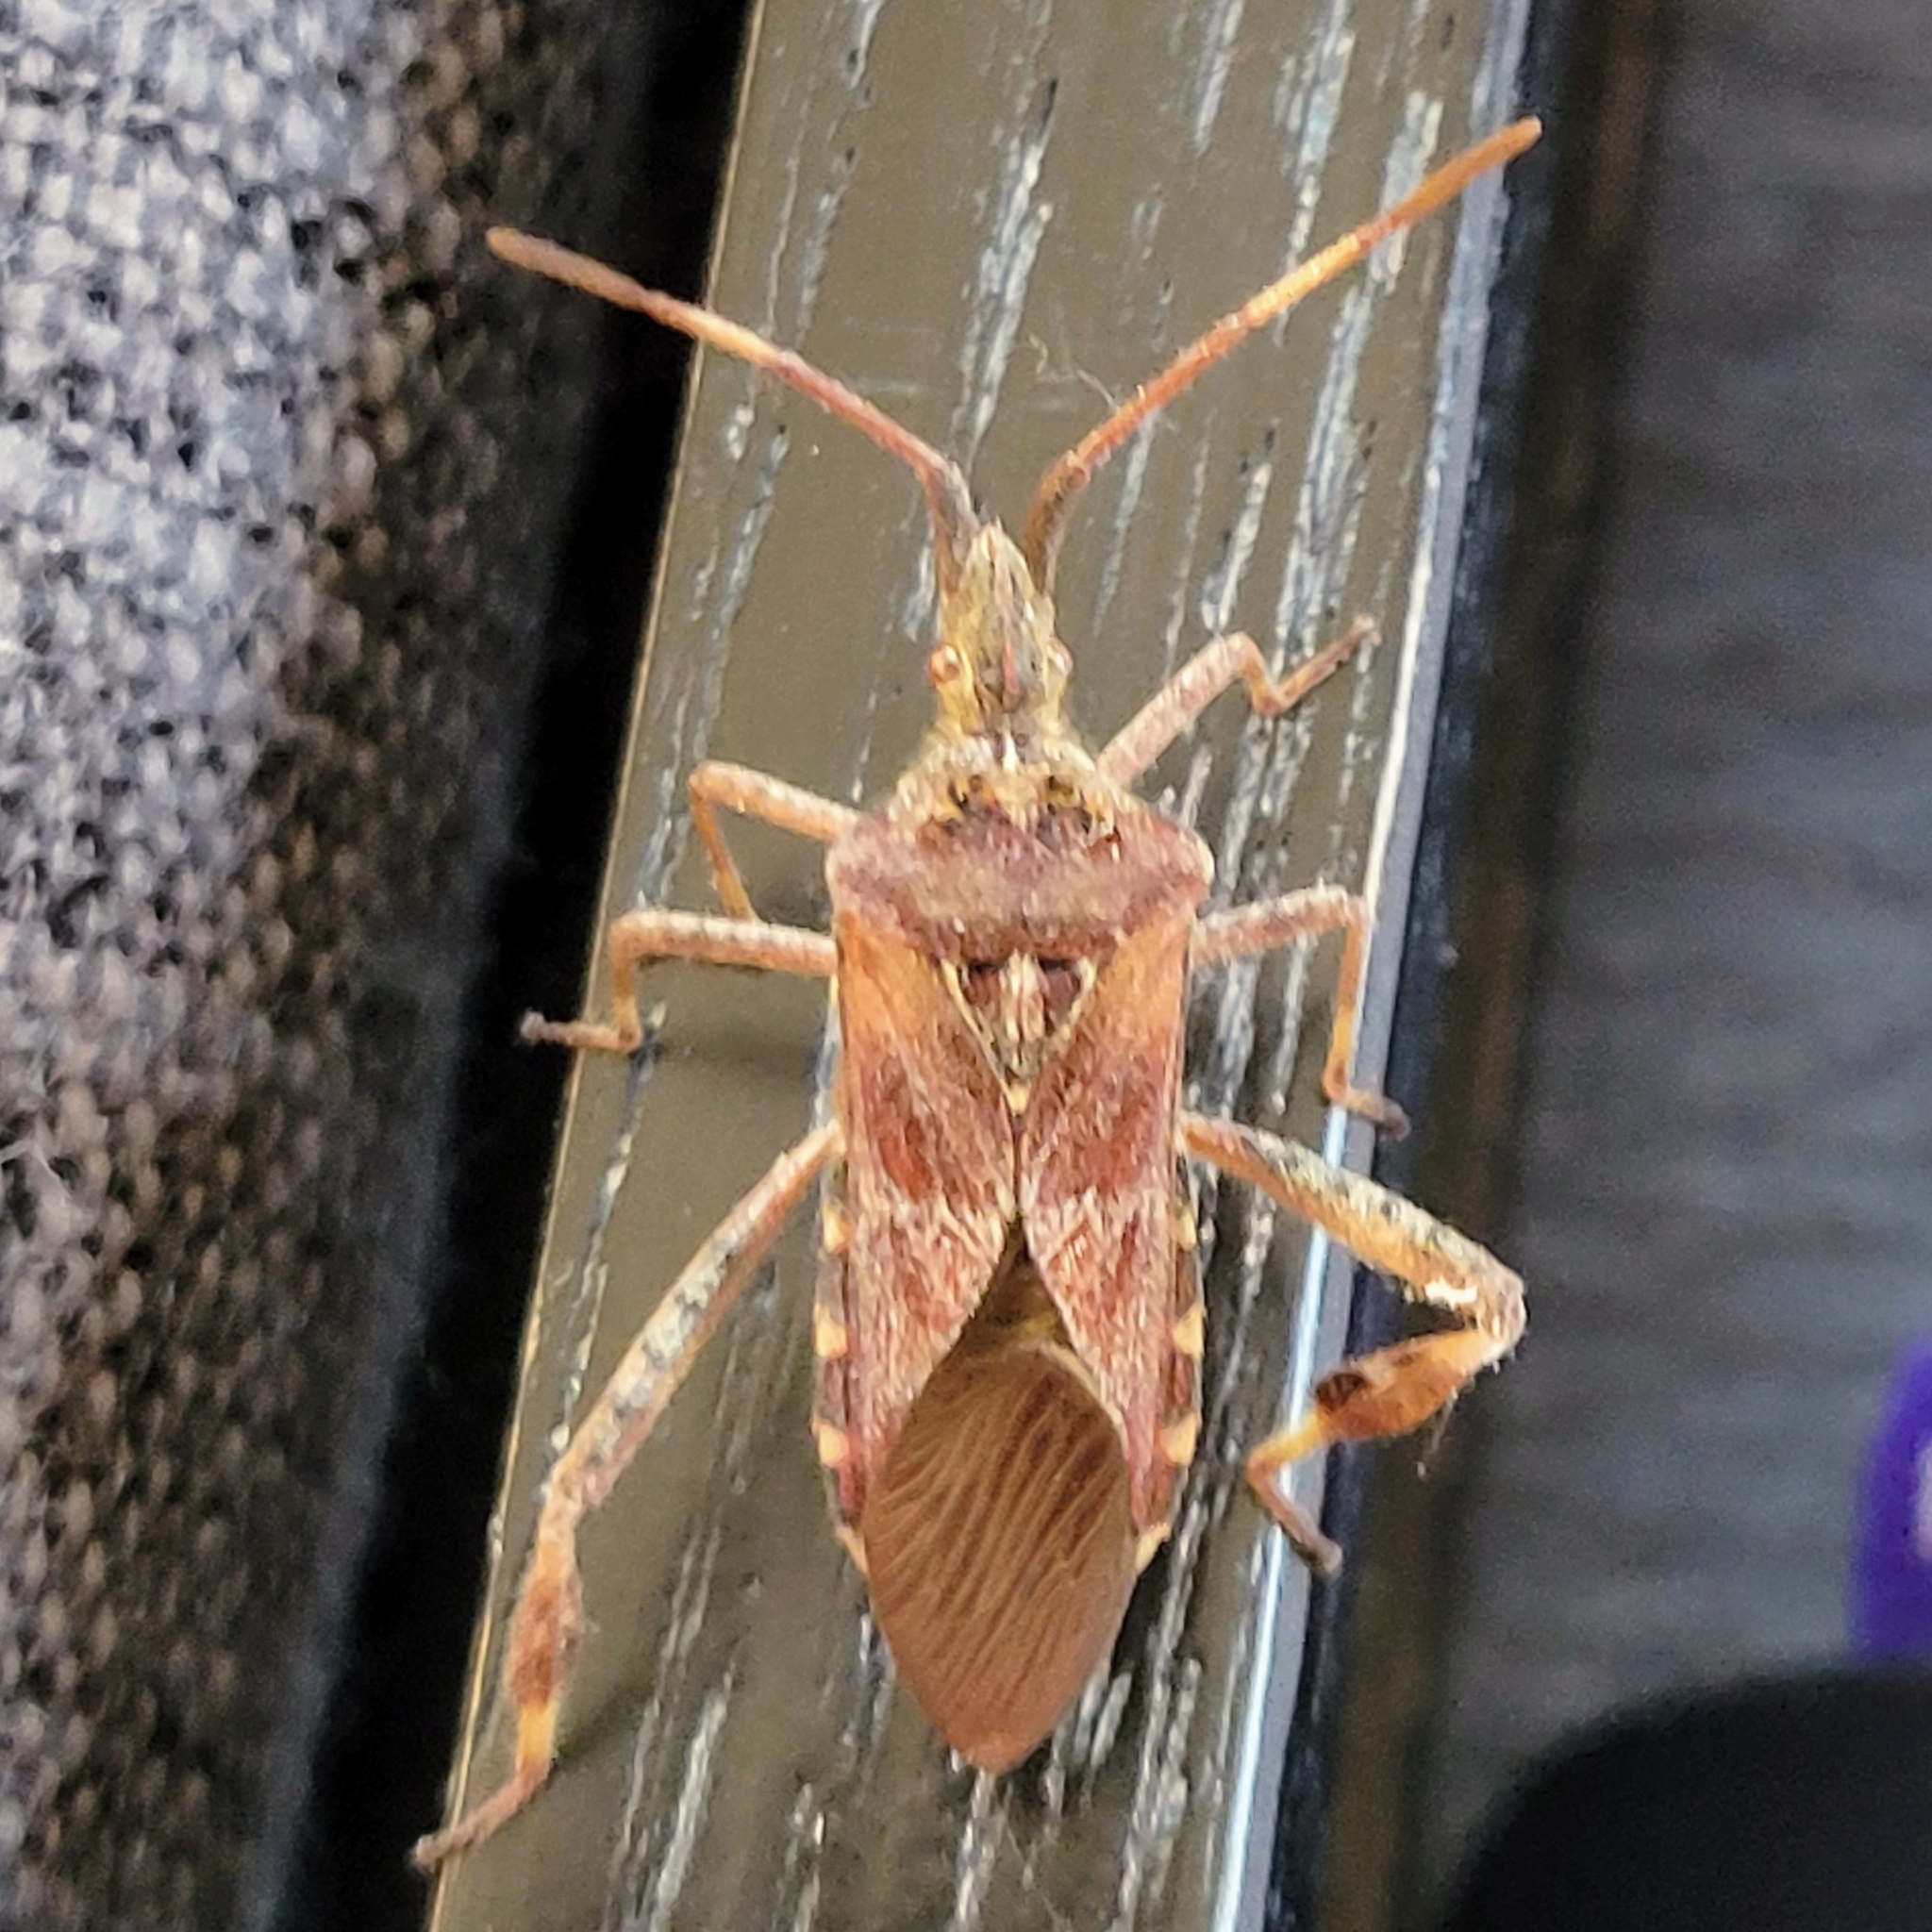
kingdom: Animalia
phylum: Arthropoda
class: Insecta
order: Hemiptera
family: Coreidae
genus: Leptoglossus
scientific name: Leptoglossus occidentalis
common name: Western conifer-seed bug
